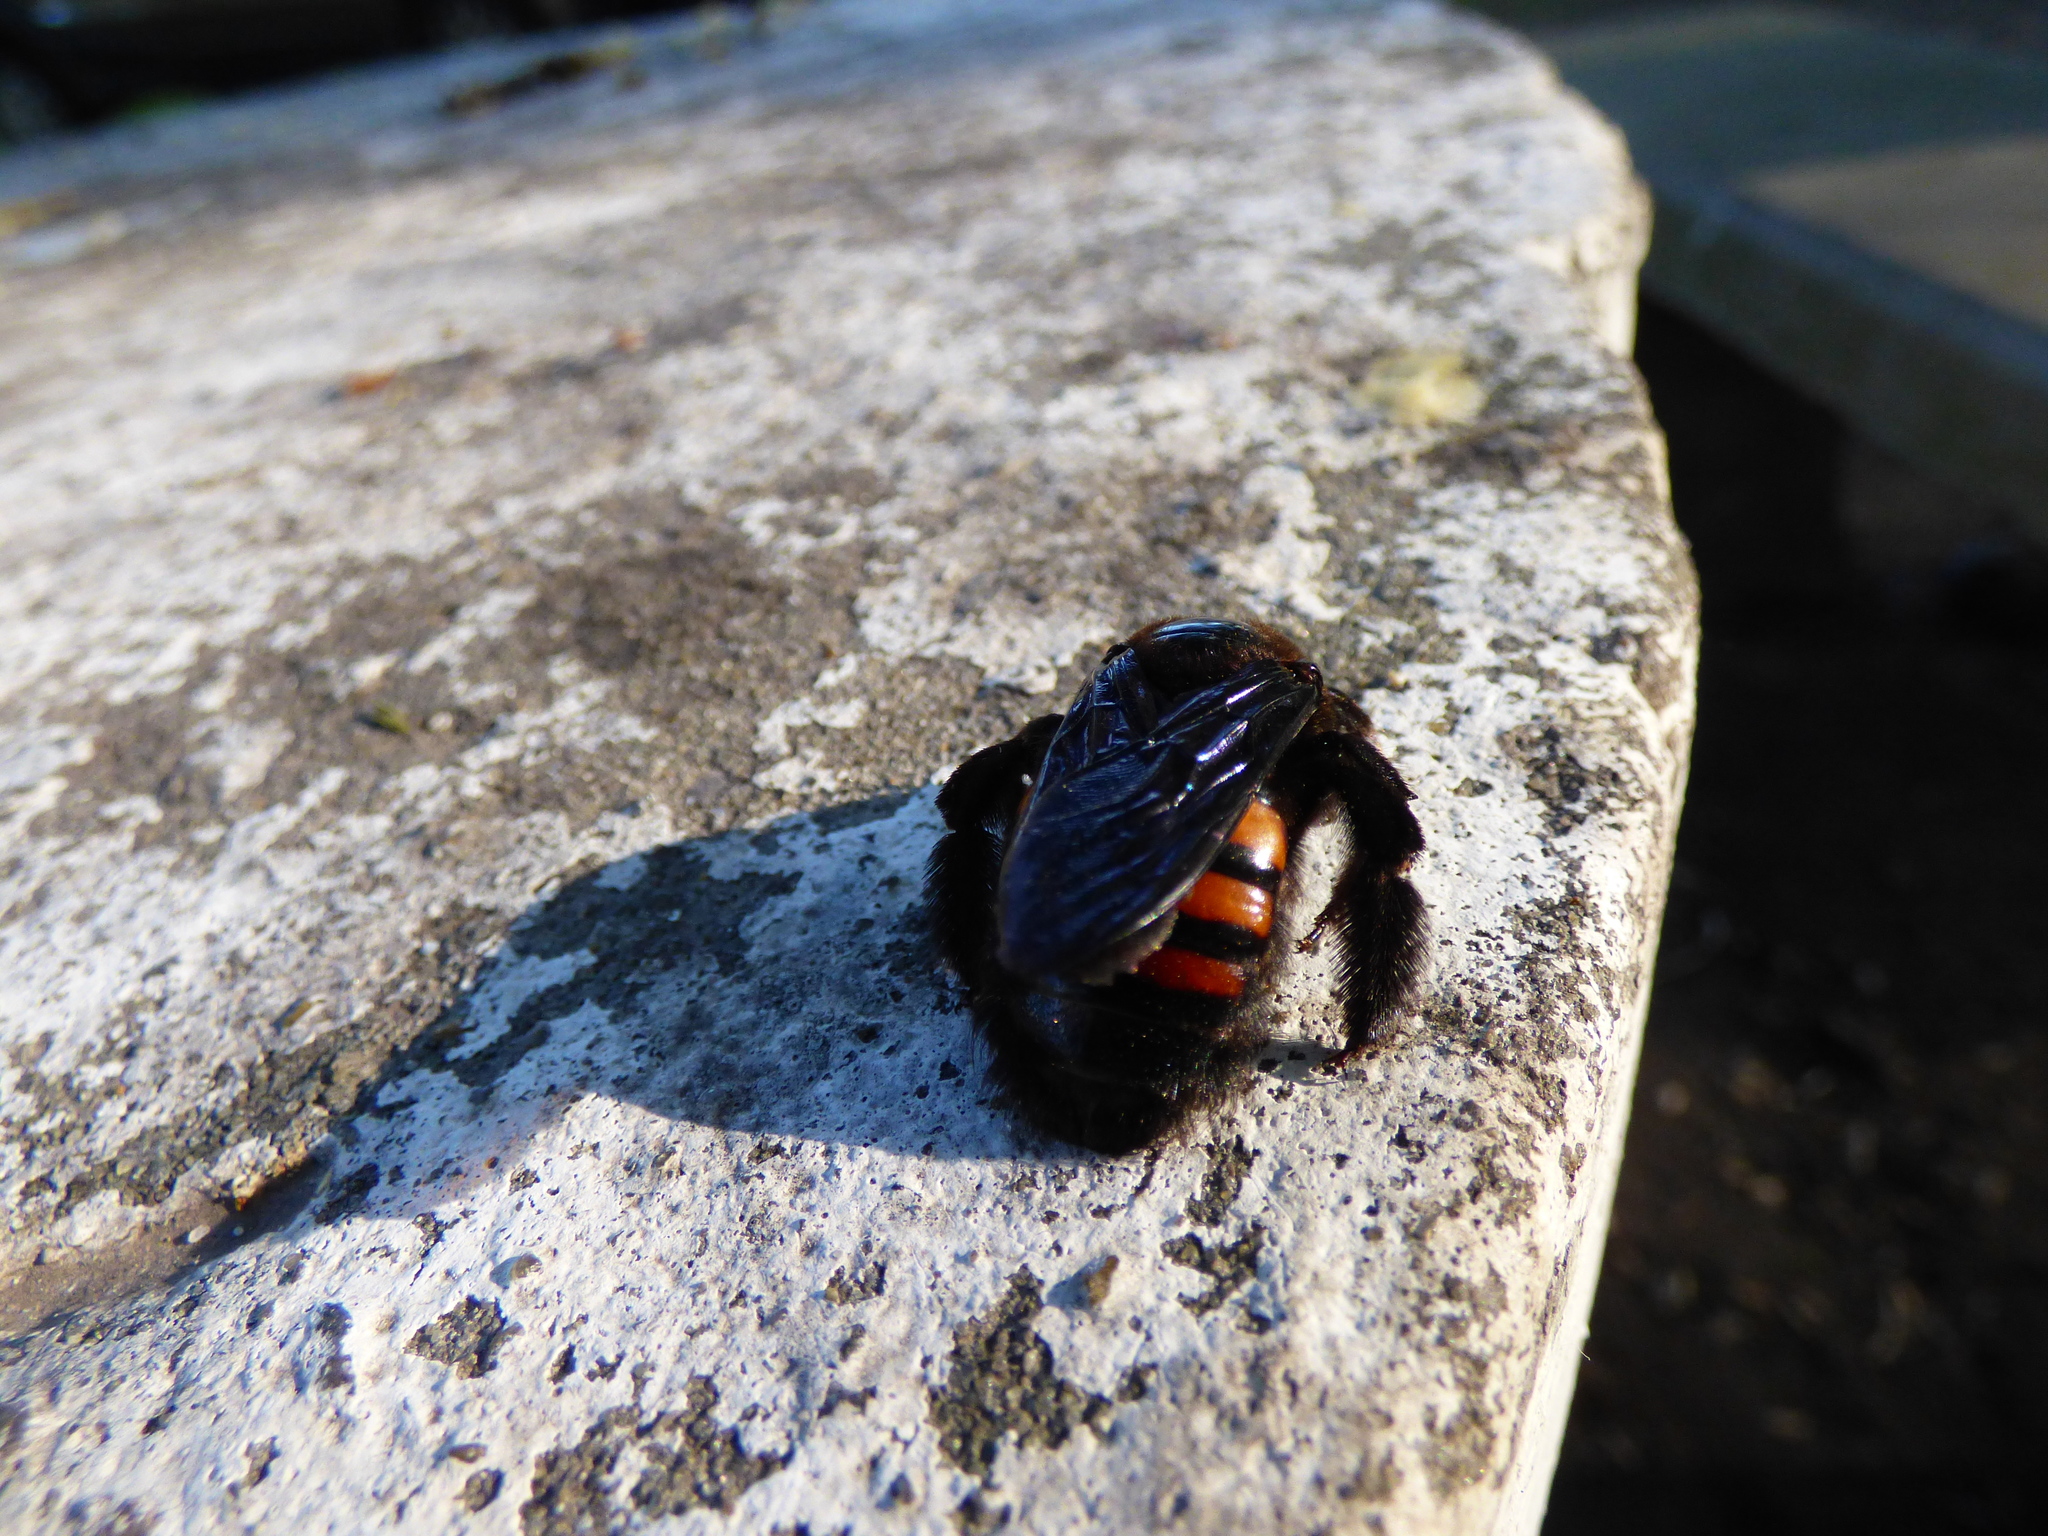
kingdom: Animalia
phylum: Arthropoda
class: Insecta
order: Hymenoptera
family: Apidae
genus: Xylocopa
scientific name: Xylocopa nigrocincta
